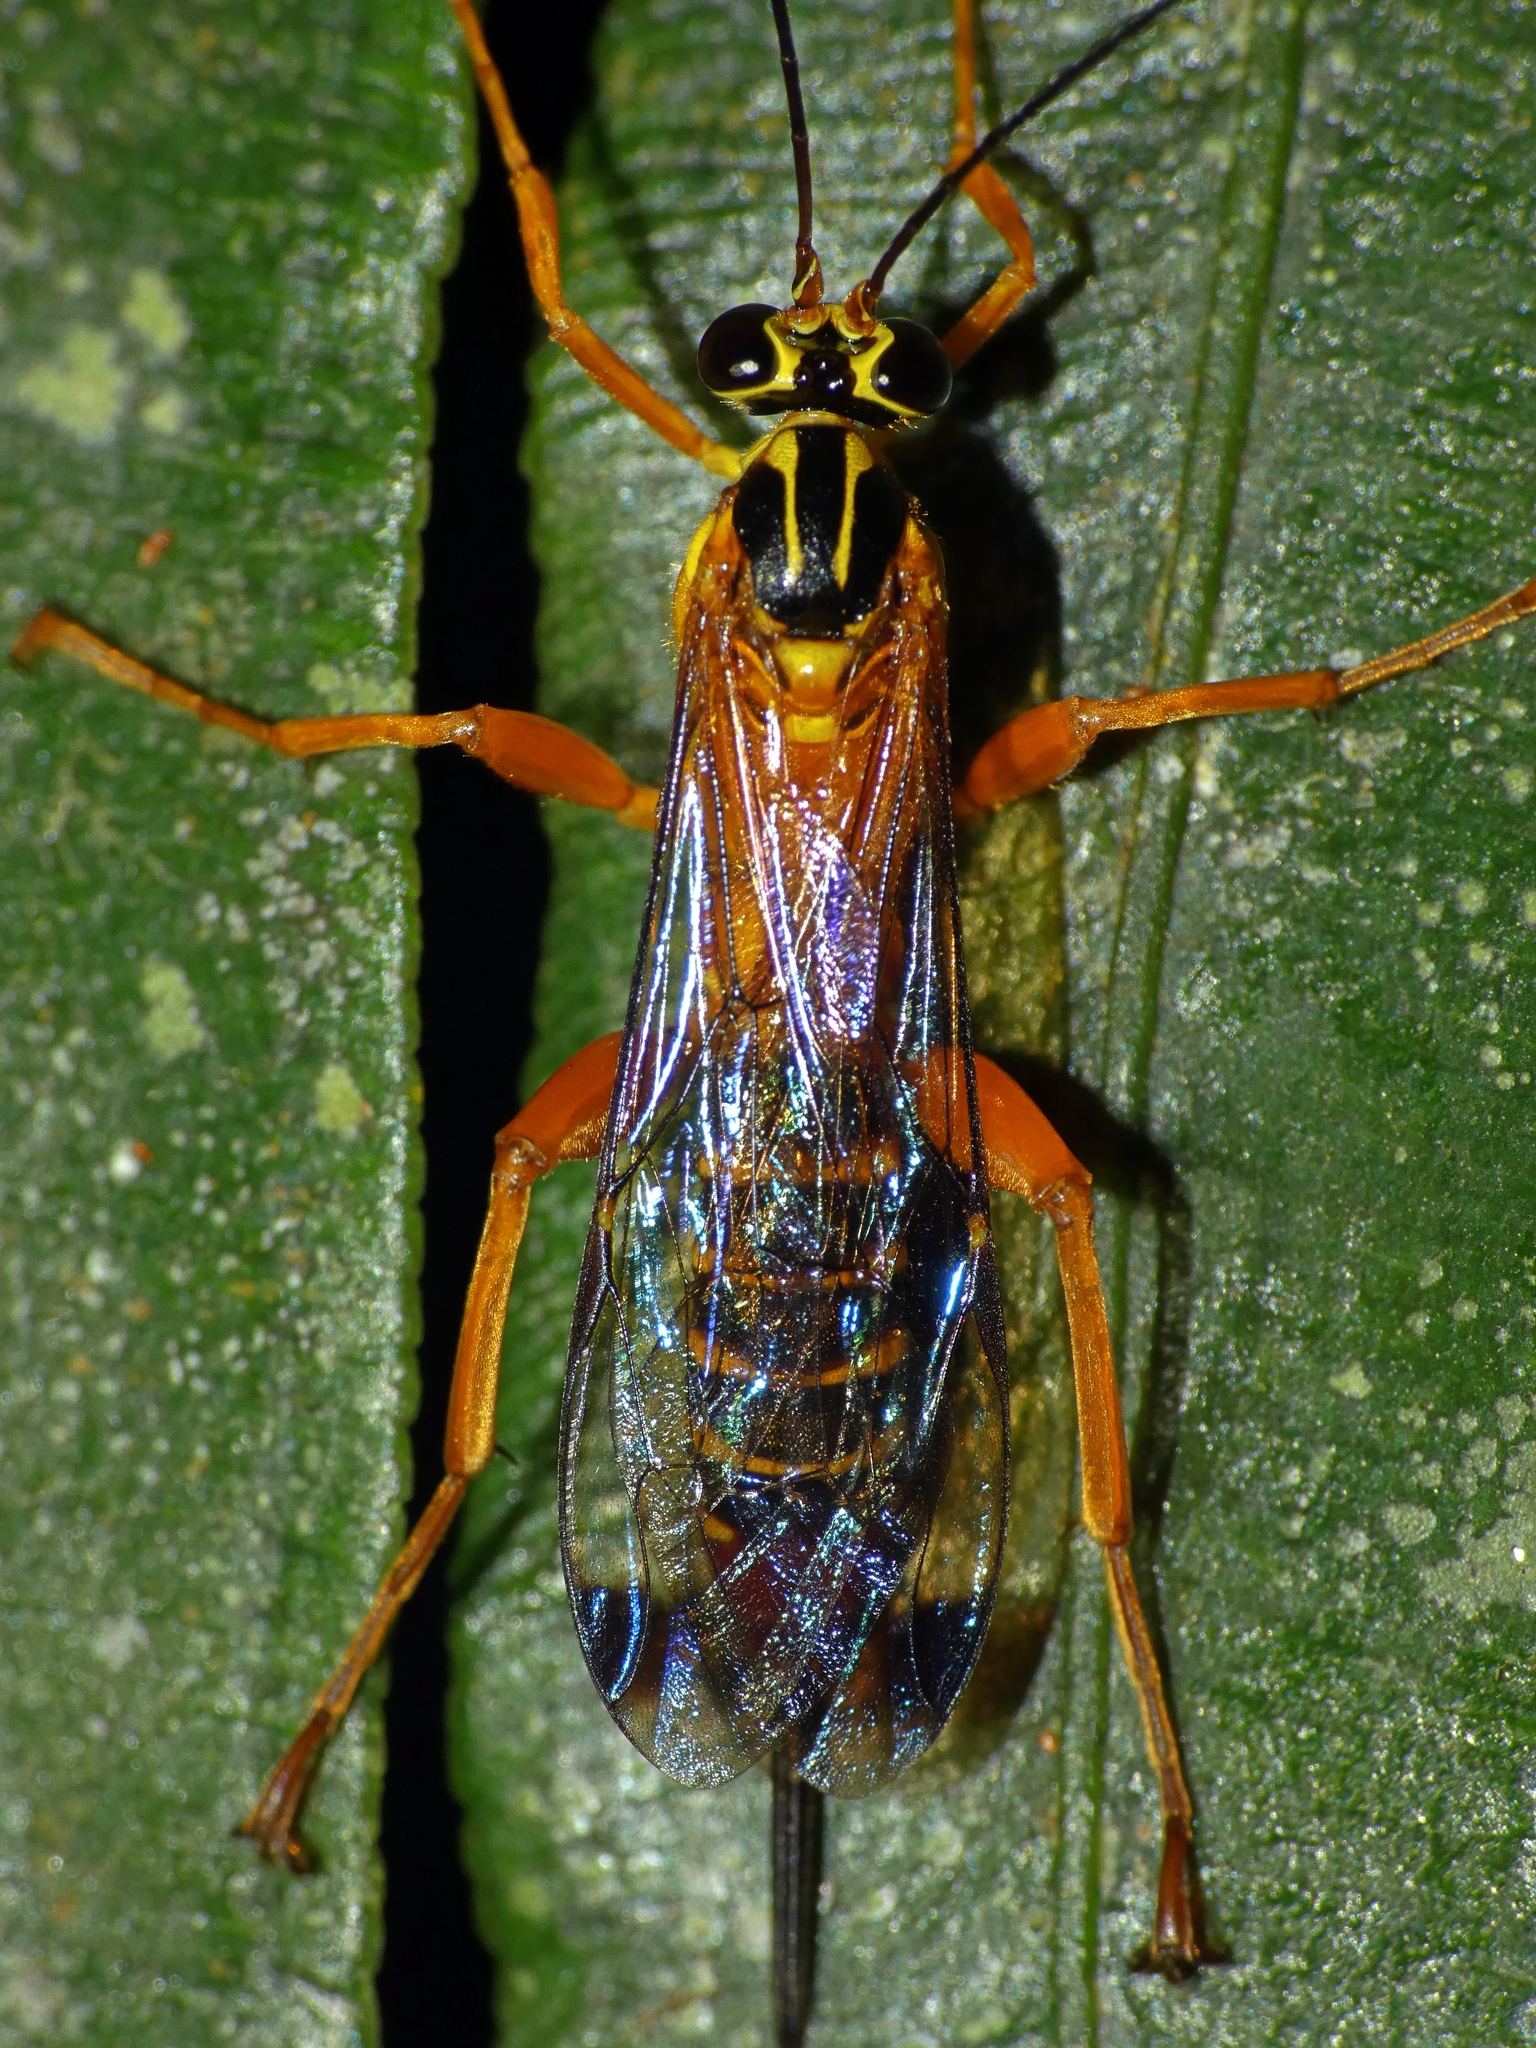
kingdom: Animalia
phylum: Arthropoda
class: Insecta
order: Hymenoptera
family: Ichneumonidae
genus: Echthromorpha
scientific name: Echthromorpha agrestoria
